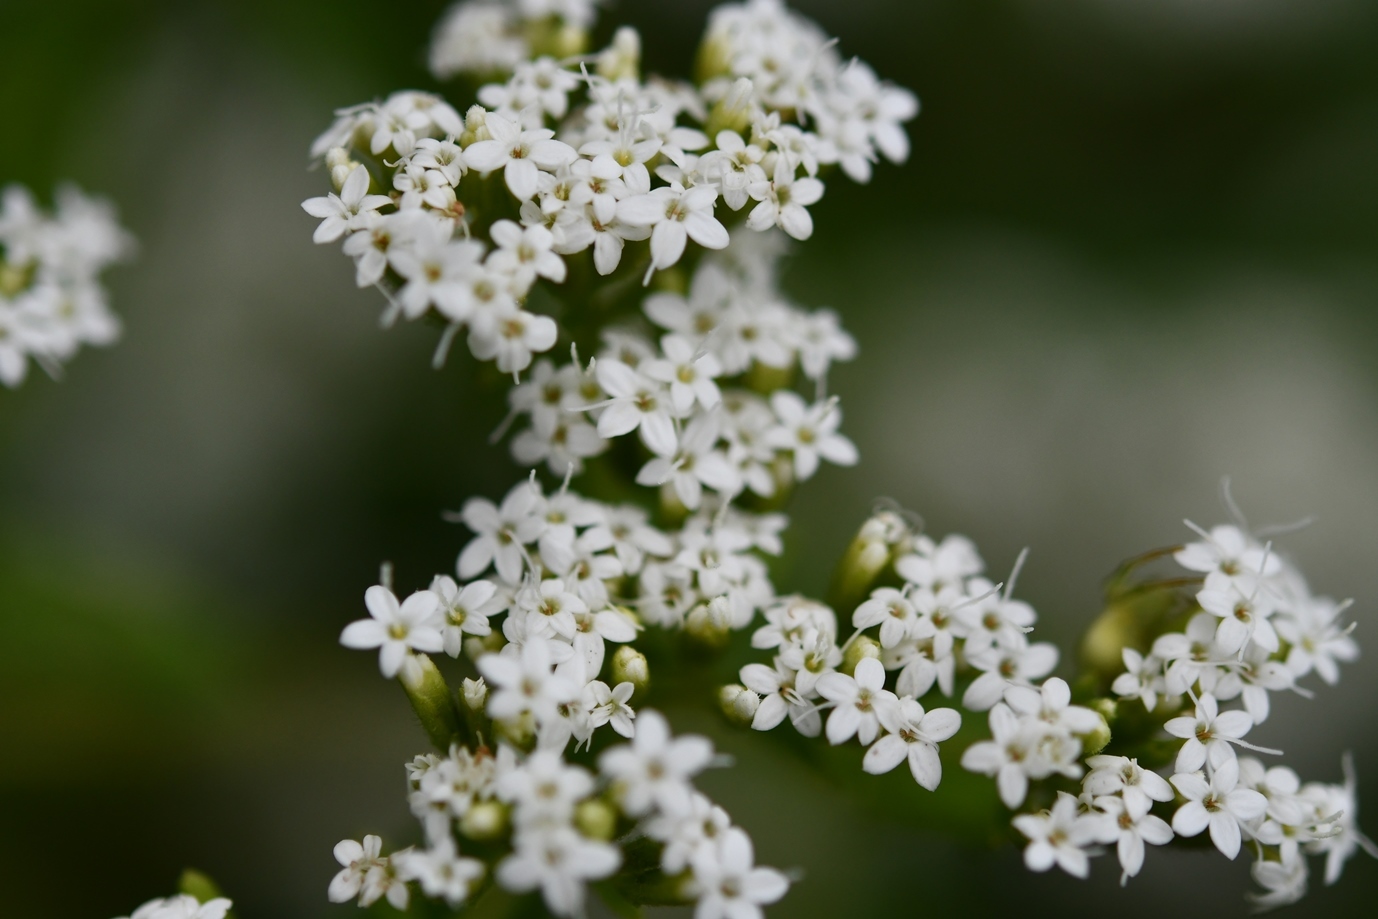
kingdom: Plantae
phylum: Tracheophyta
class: Magnoliopsida
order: Asterales
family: Asteraceae
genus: Stevia
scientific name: Stevia ovata
